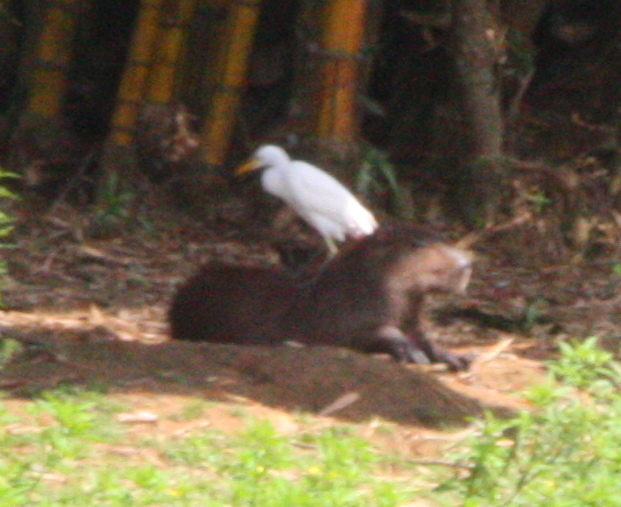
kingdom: Animalia
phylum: Chordata
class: Mammalia
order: Rodentia
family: Caviidae
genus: Hydrochoerus
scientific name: Hydrochoerus isthmius
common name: Lesser capybara
